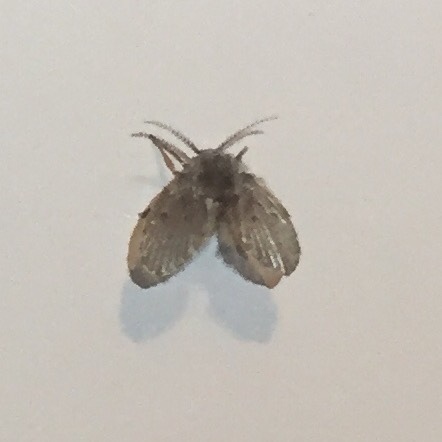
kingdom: Animalia
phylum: Arthropoda
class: Insecta
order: Diptera
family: Psychodidae
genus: Clogmia
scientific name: Clogmia albipunctatus
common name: White-spotted moth fly
